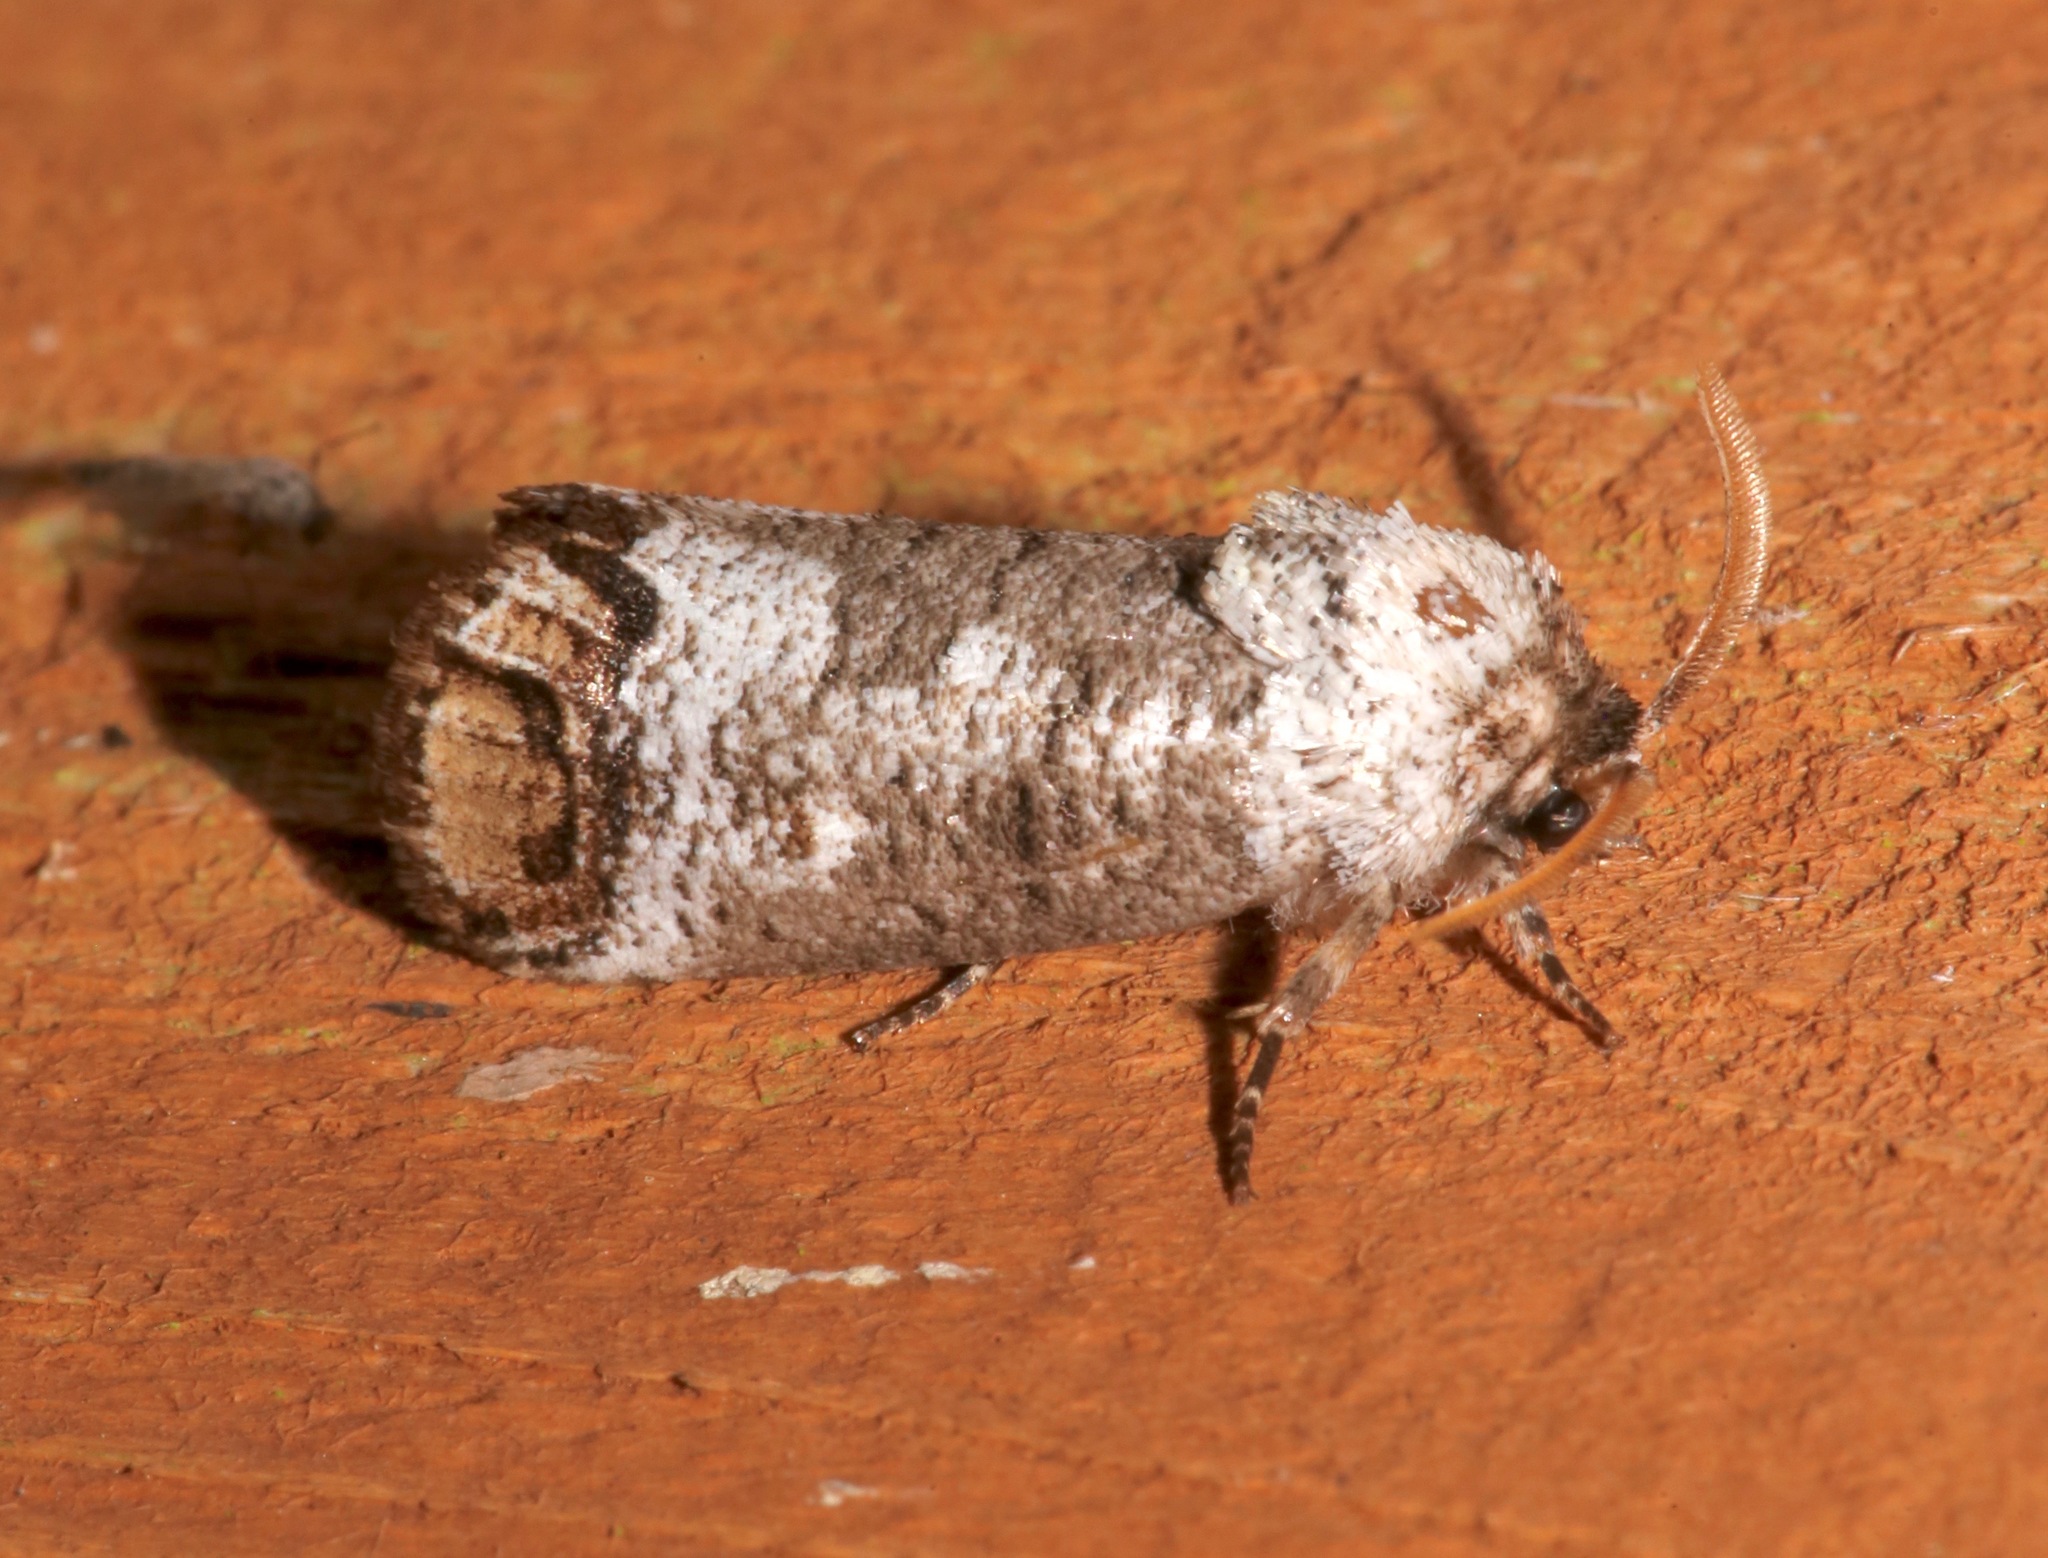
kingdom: Animalia
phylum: Arthropoda
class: Insecta
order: Lepidoptera
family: Cossidae
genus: Cossula
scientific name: Cossula magnifica
